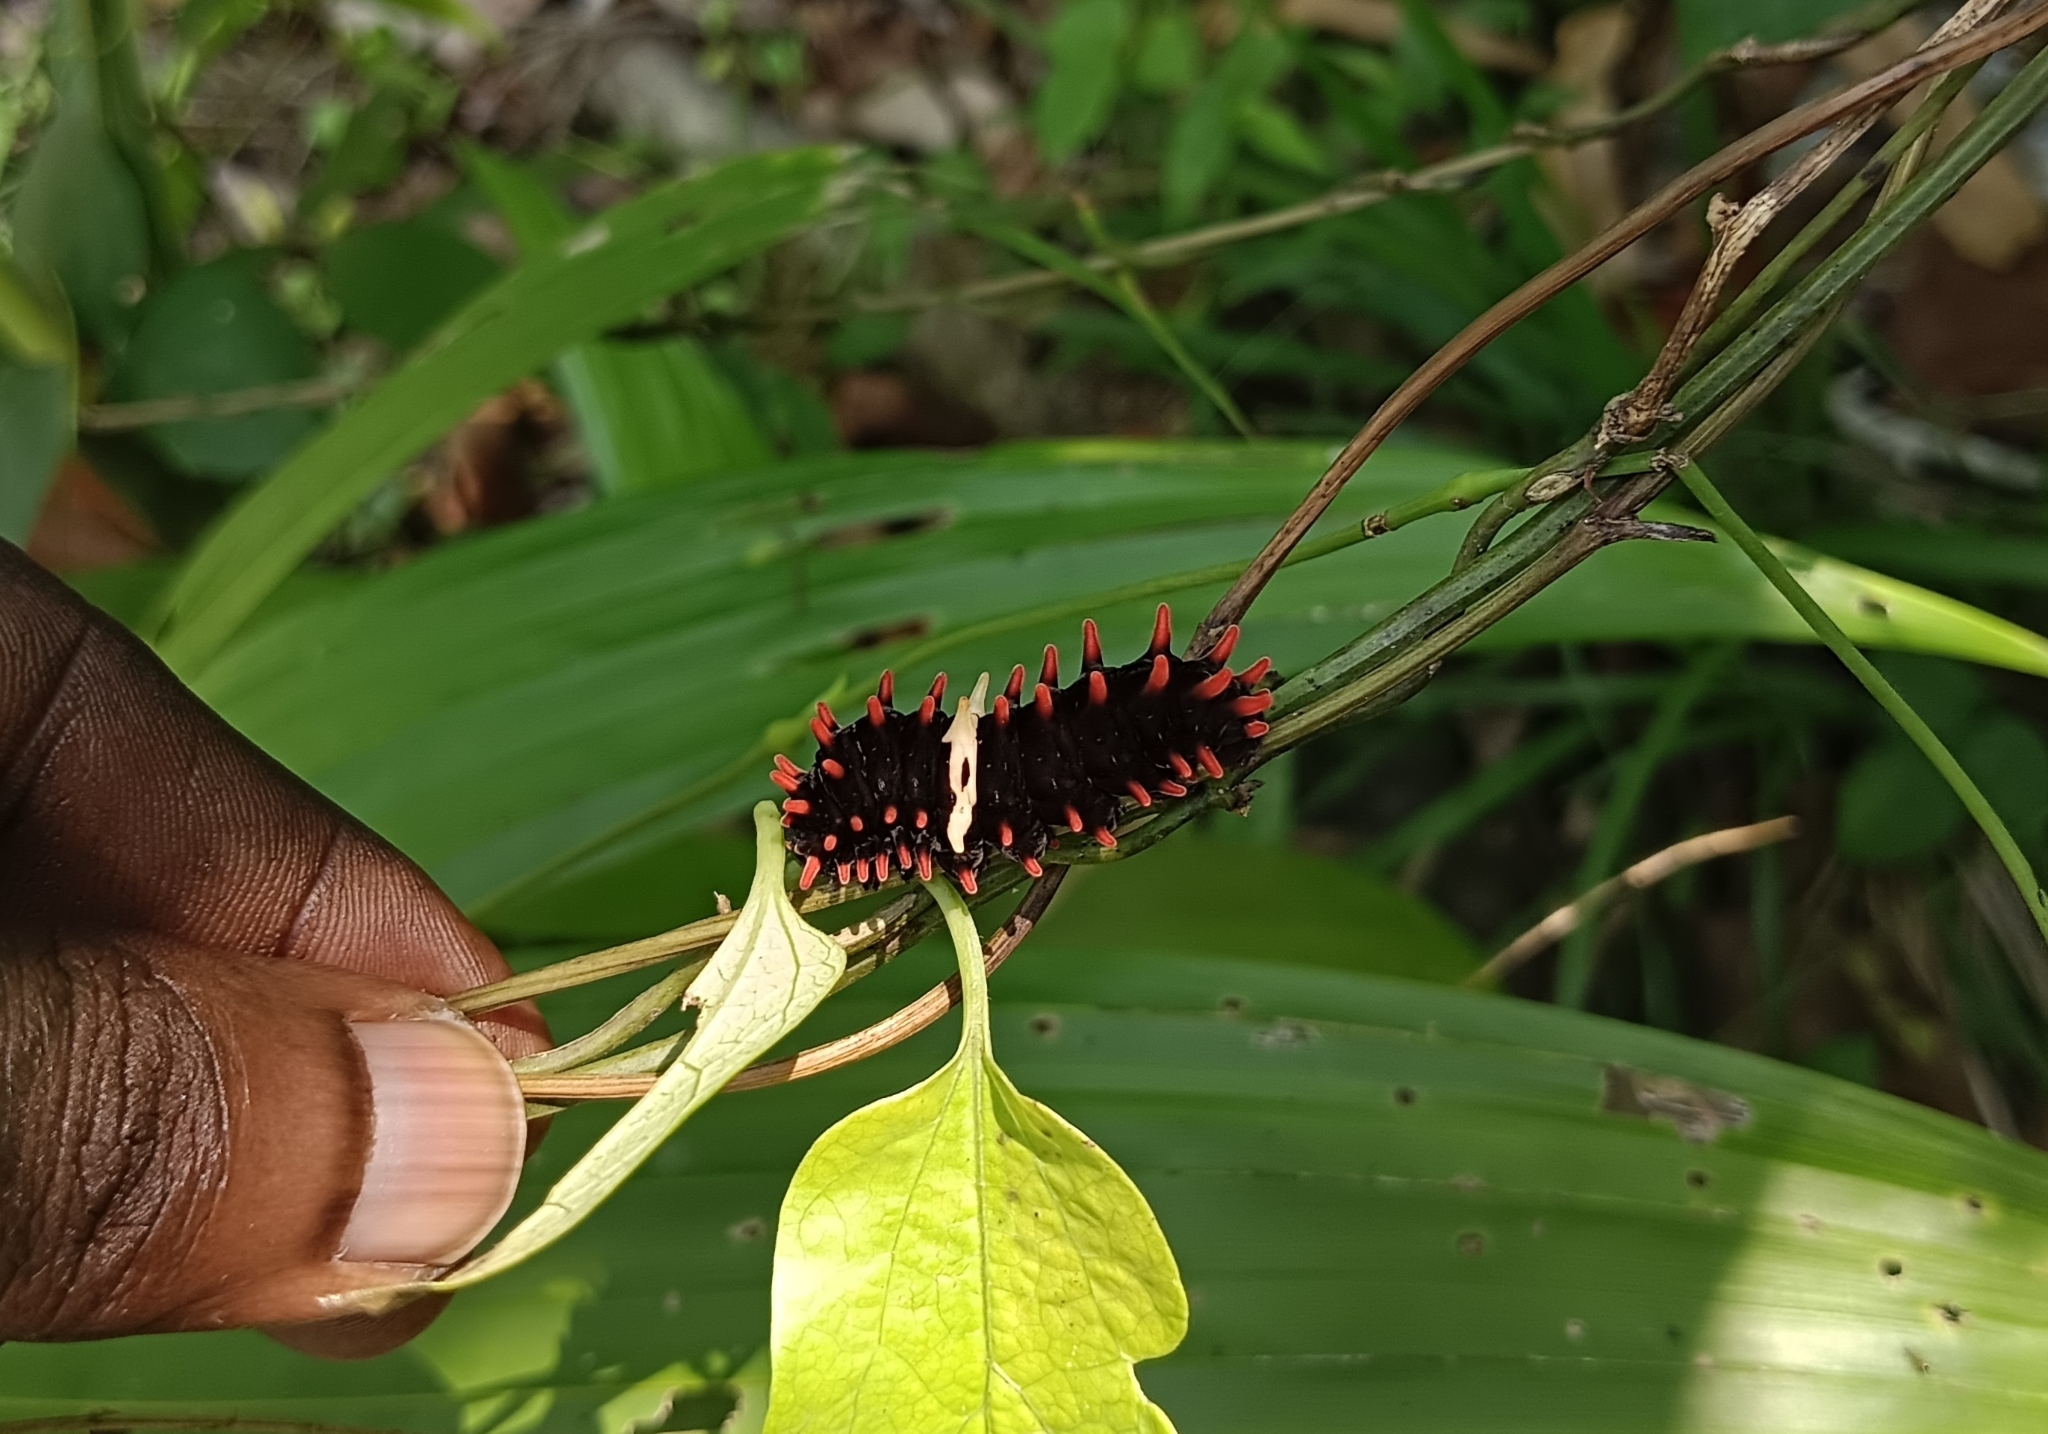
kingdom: Animalia
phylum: Arthropoda
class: Insecta
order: Lepidoptera
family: Papilionidae
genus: Pachliopta
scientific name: Pachliopta aristolochiae
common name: Common rose
